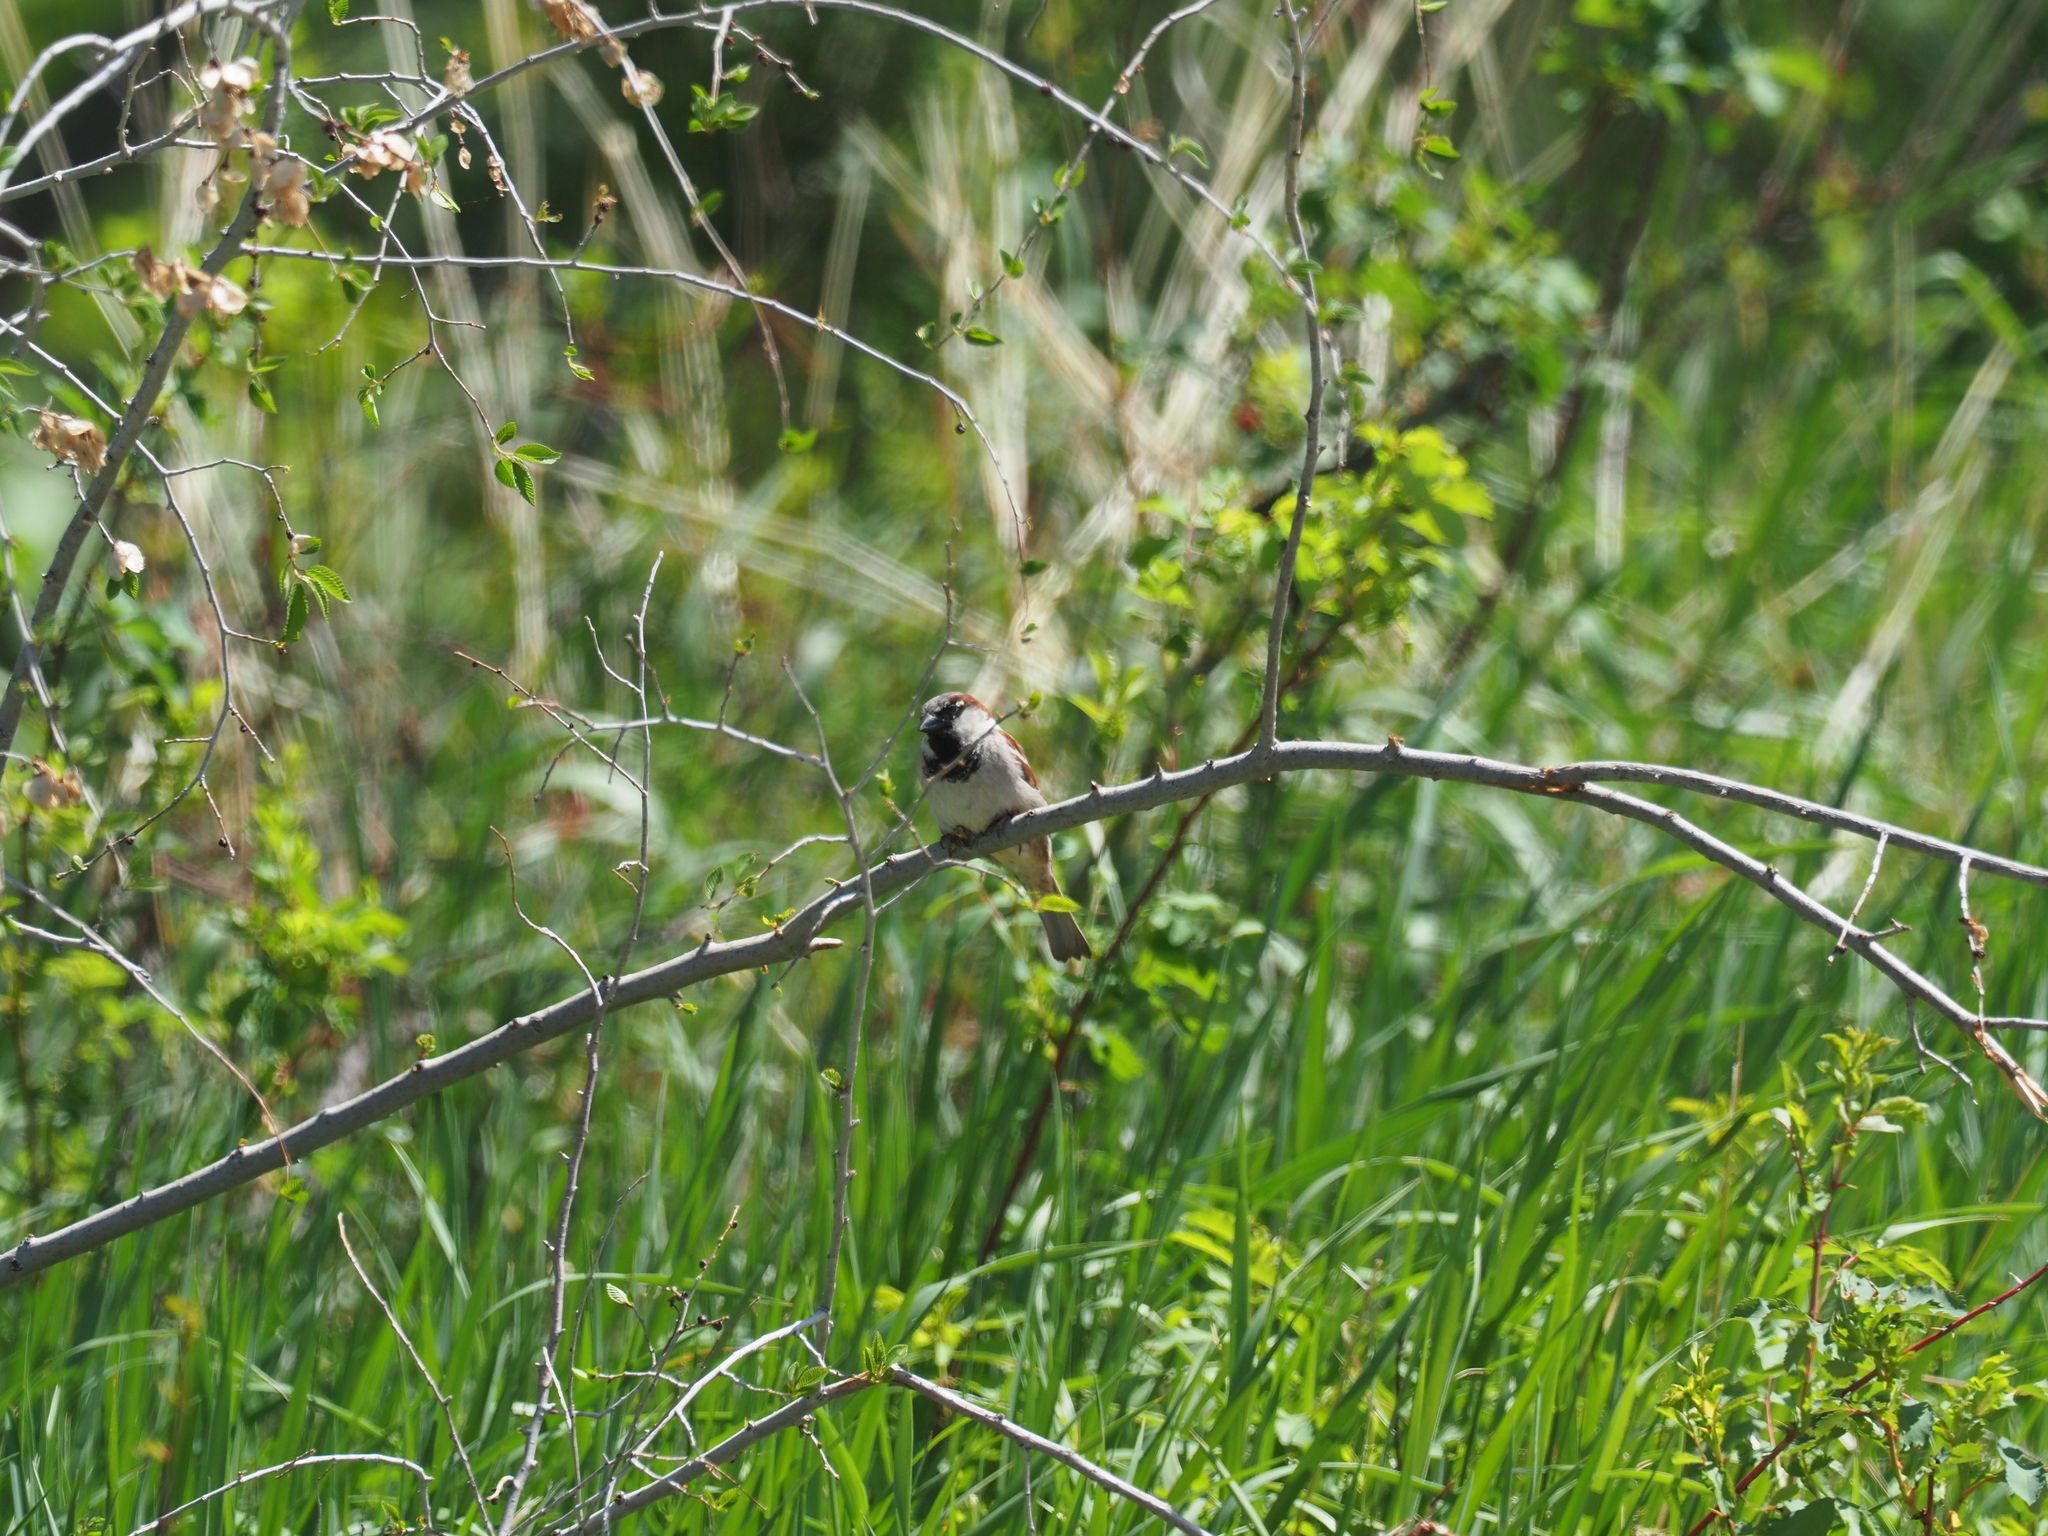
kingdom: Animalia
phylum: Chordata
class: Aves
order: Passeriformes
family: Passeridae
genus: Passer
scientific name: Passer domesticus
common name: House sparrow
